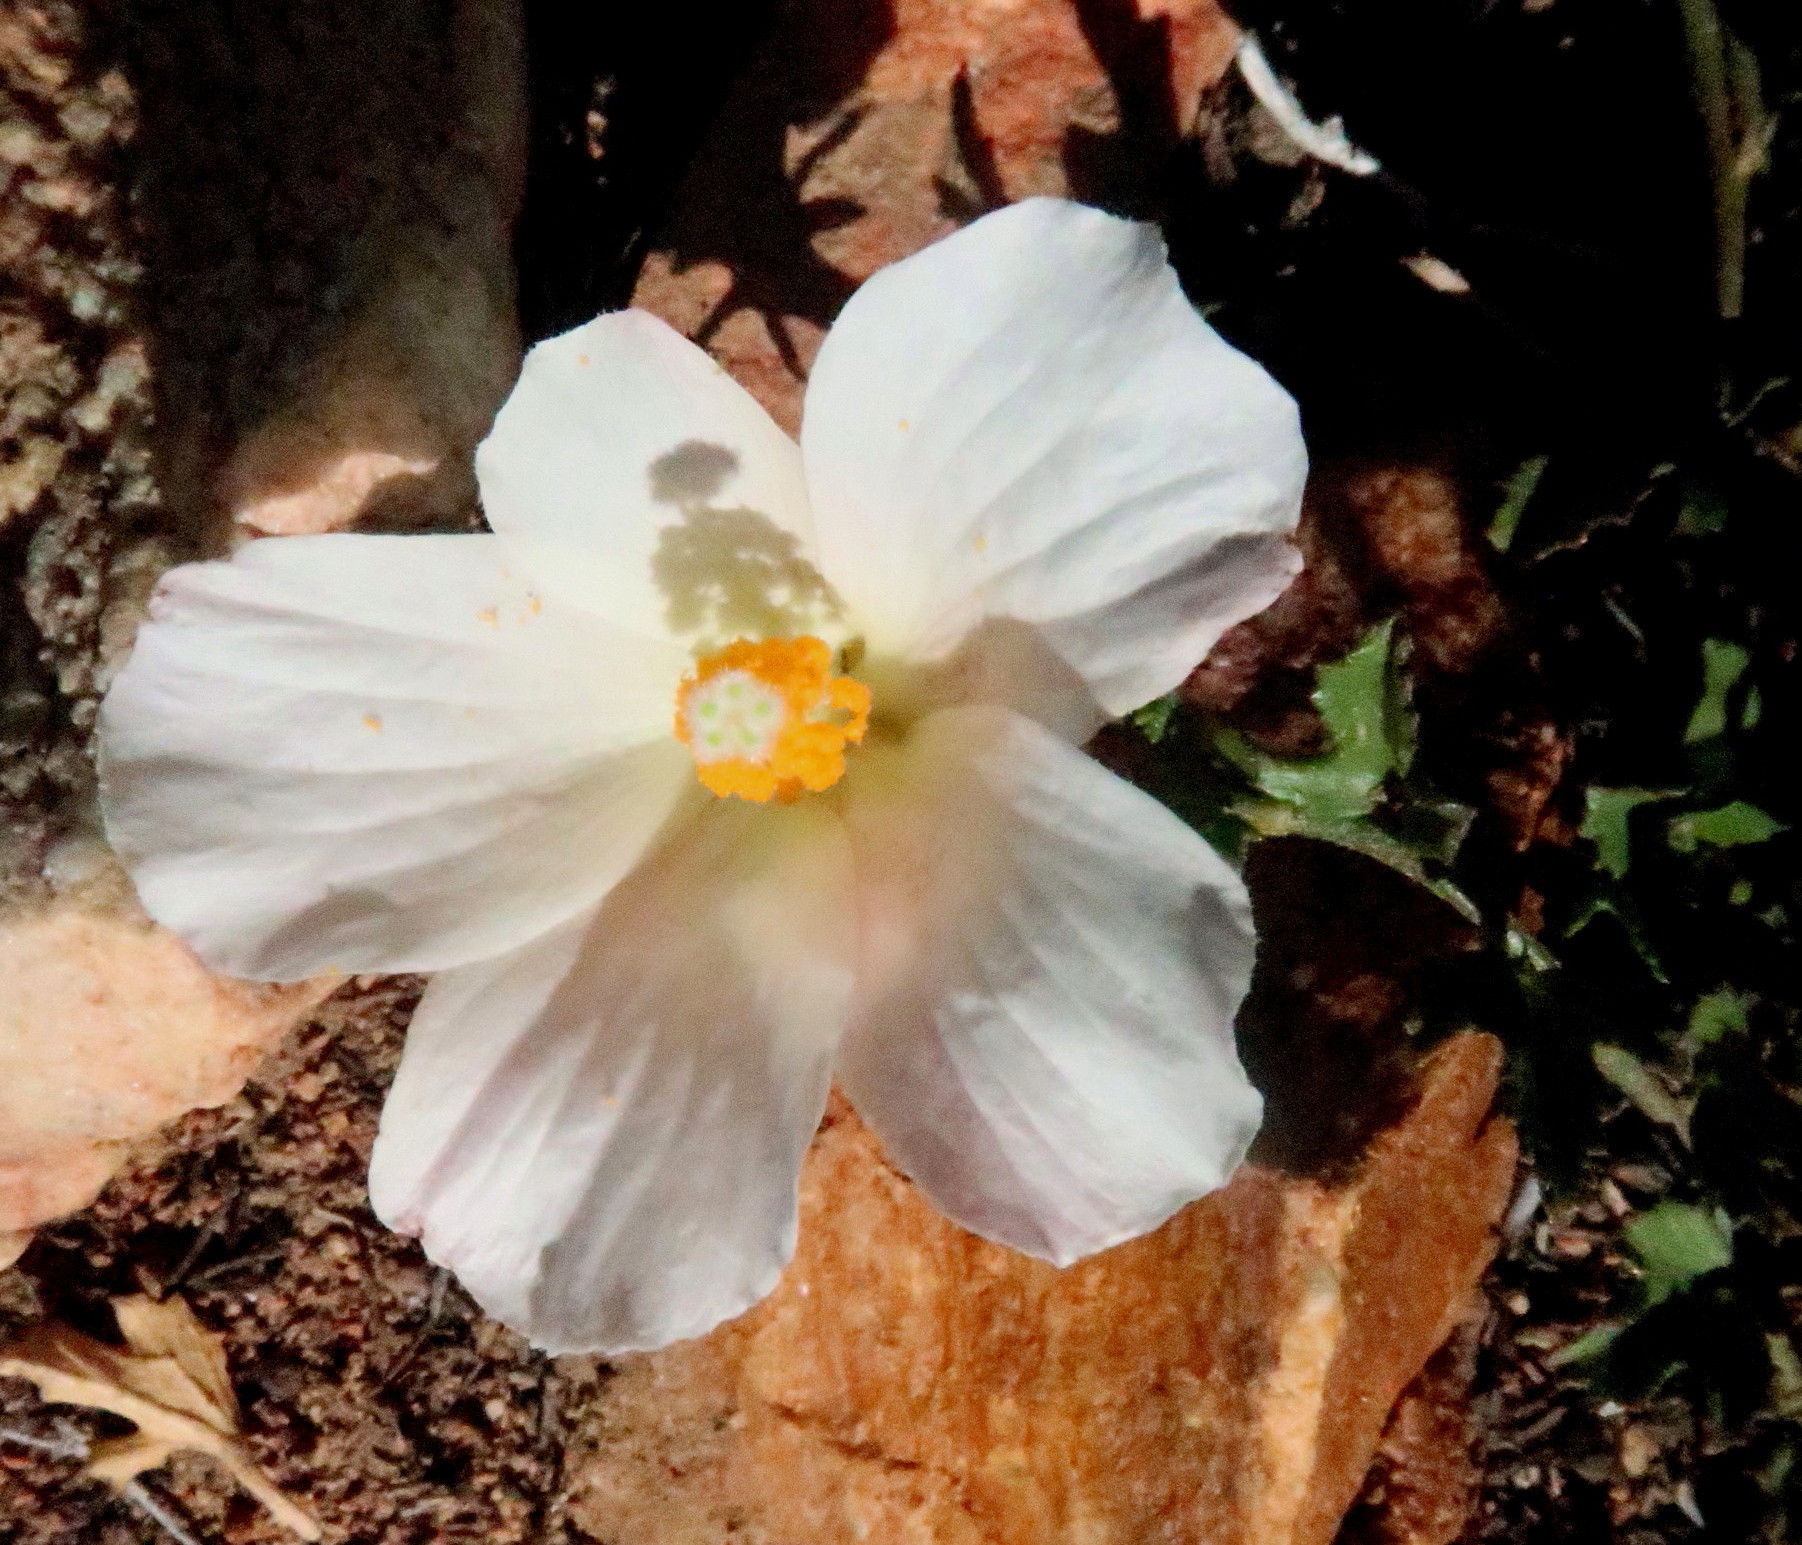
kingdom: Plantae
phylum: Tracheophyta
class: Magnoliopsida
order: Malvales
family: Malvaceae
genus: Hibiscus
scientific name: Hibiscus pusillus
